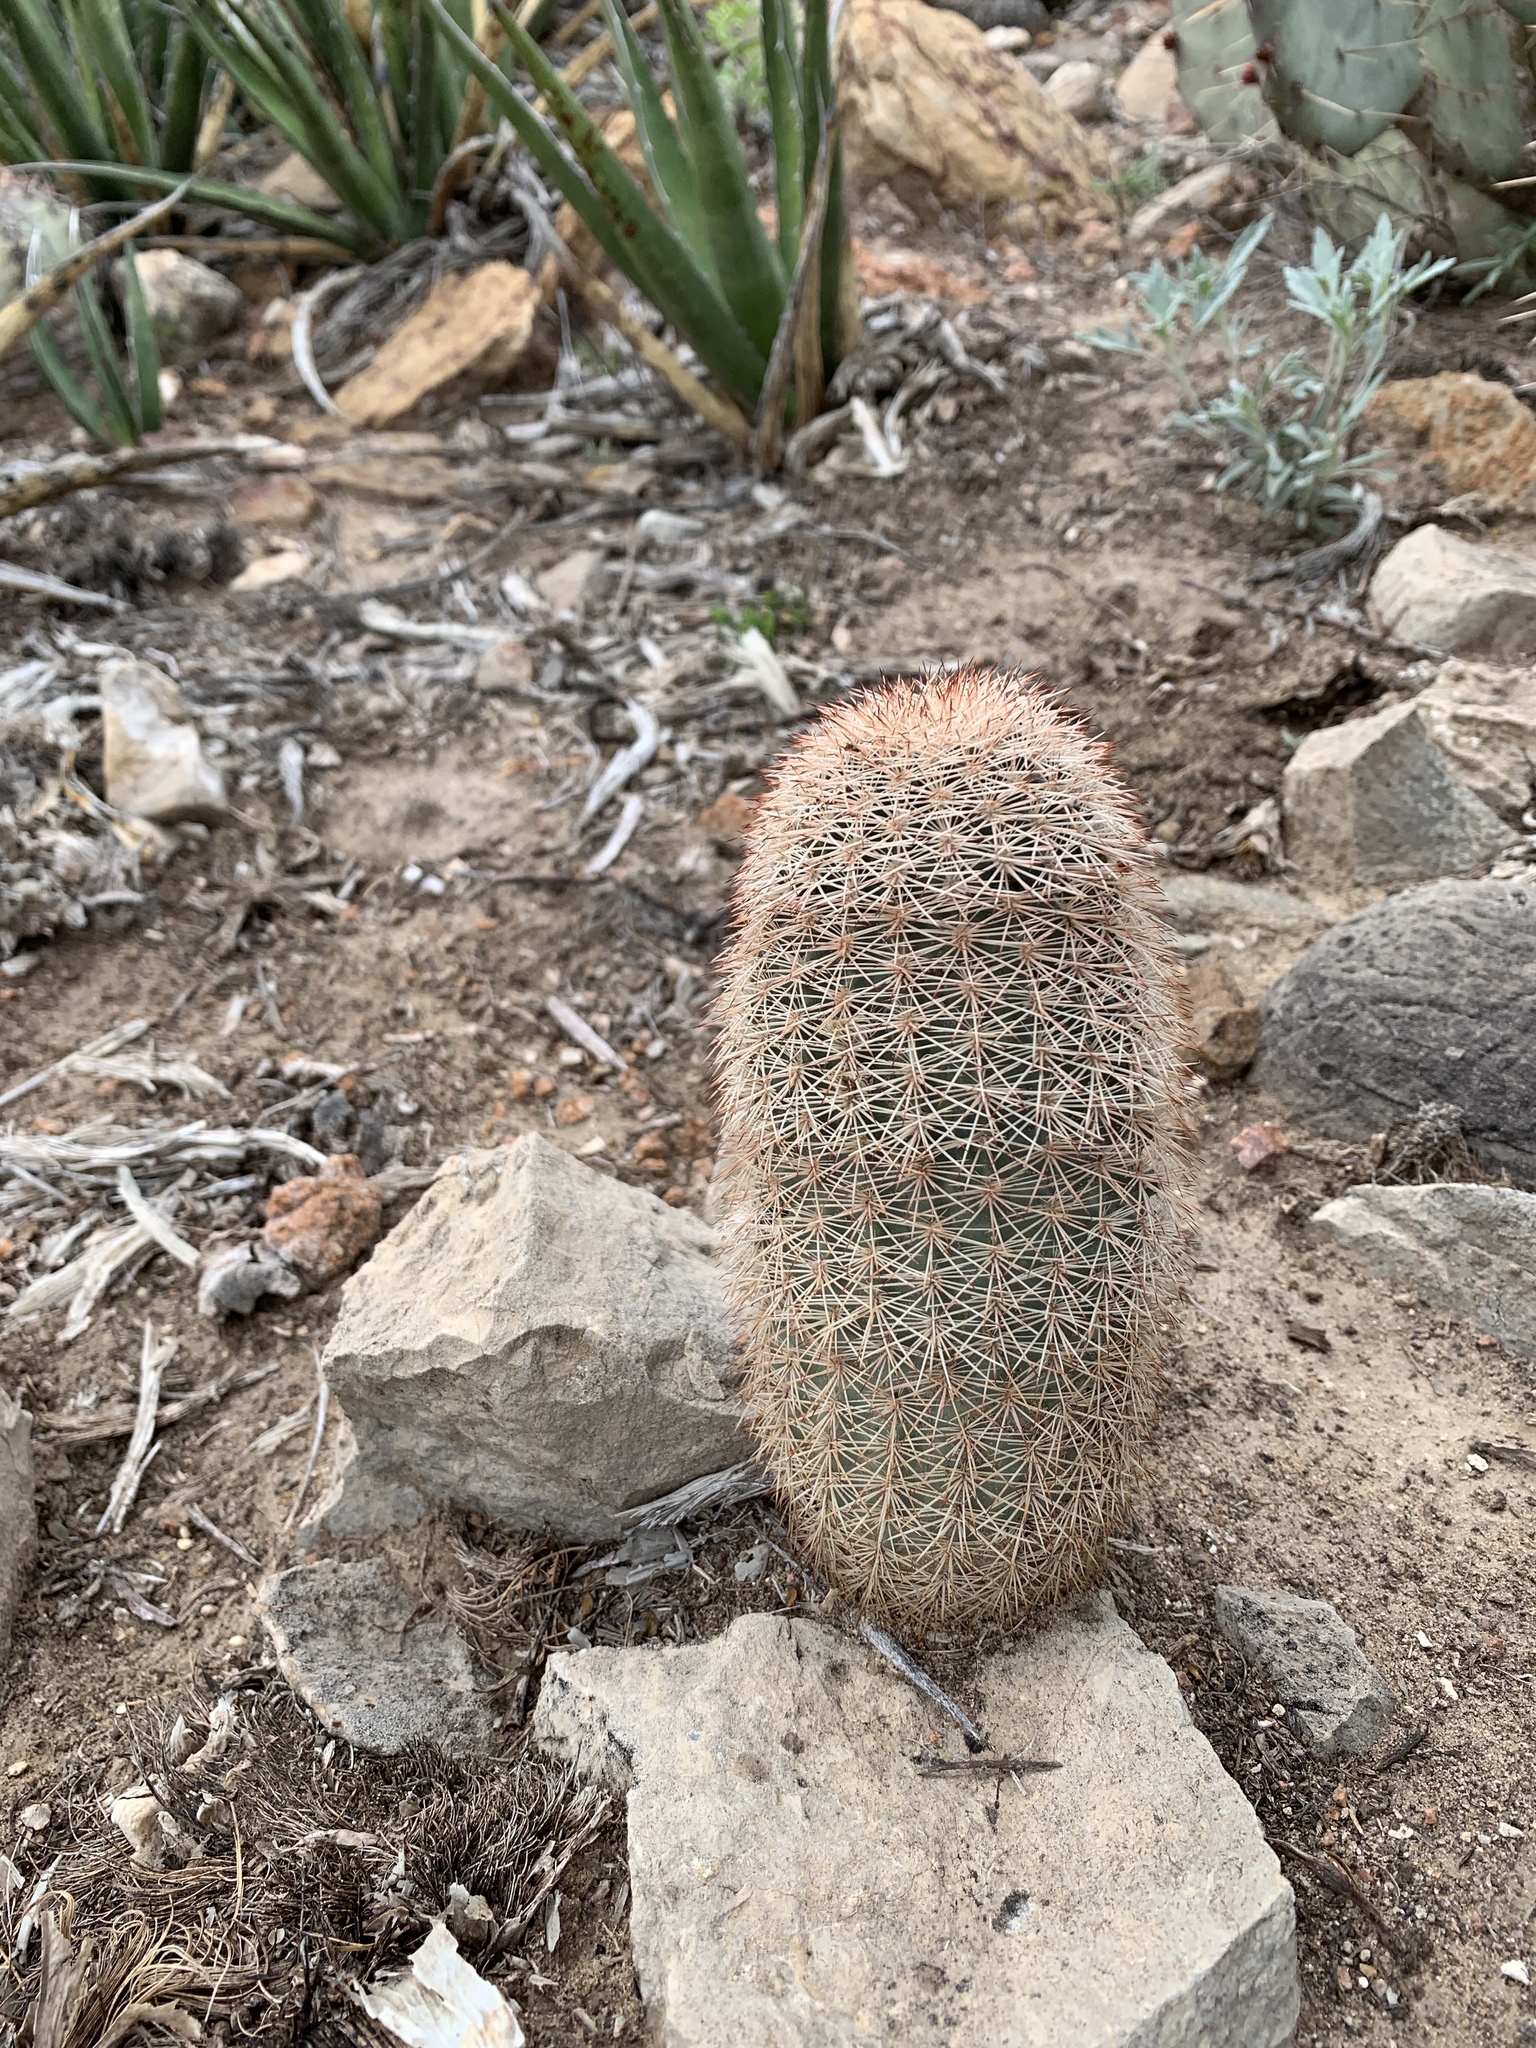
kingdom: Plantae
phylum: Tracheophyta
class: Magnoliopsida
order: Caryophyllales
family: Cactaceae
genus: Echinocereus
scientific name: Echinocereus dasyacanthus
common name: Spiny hedgehog cactus
